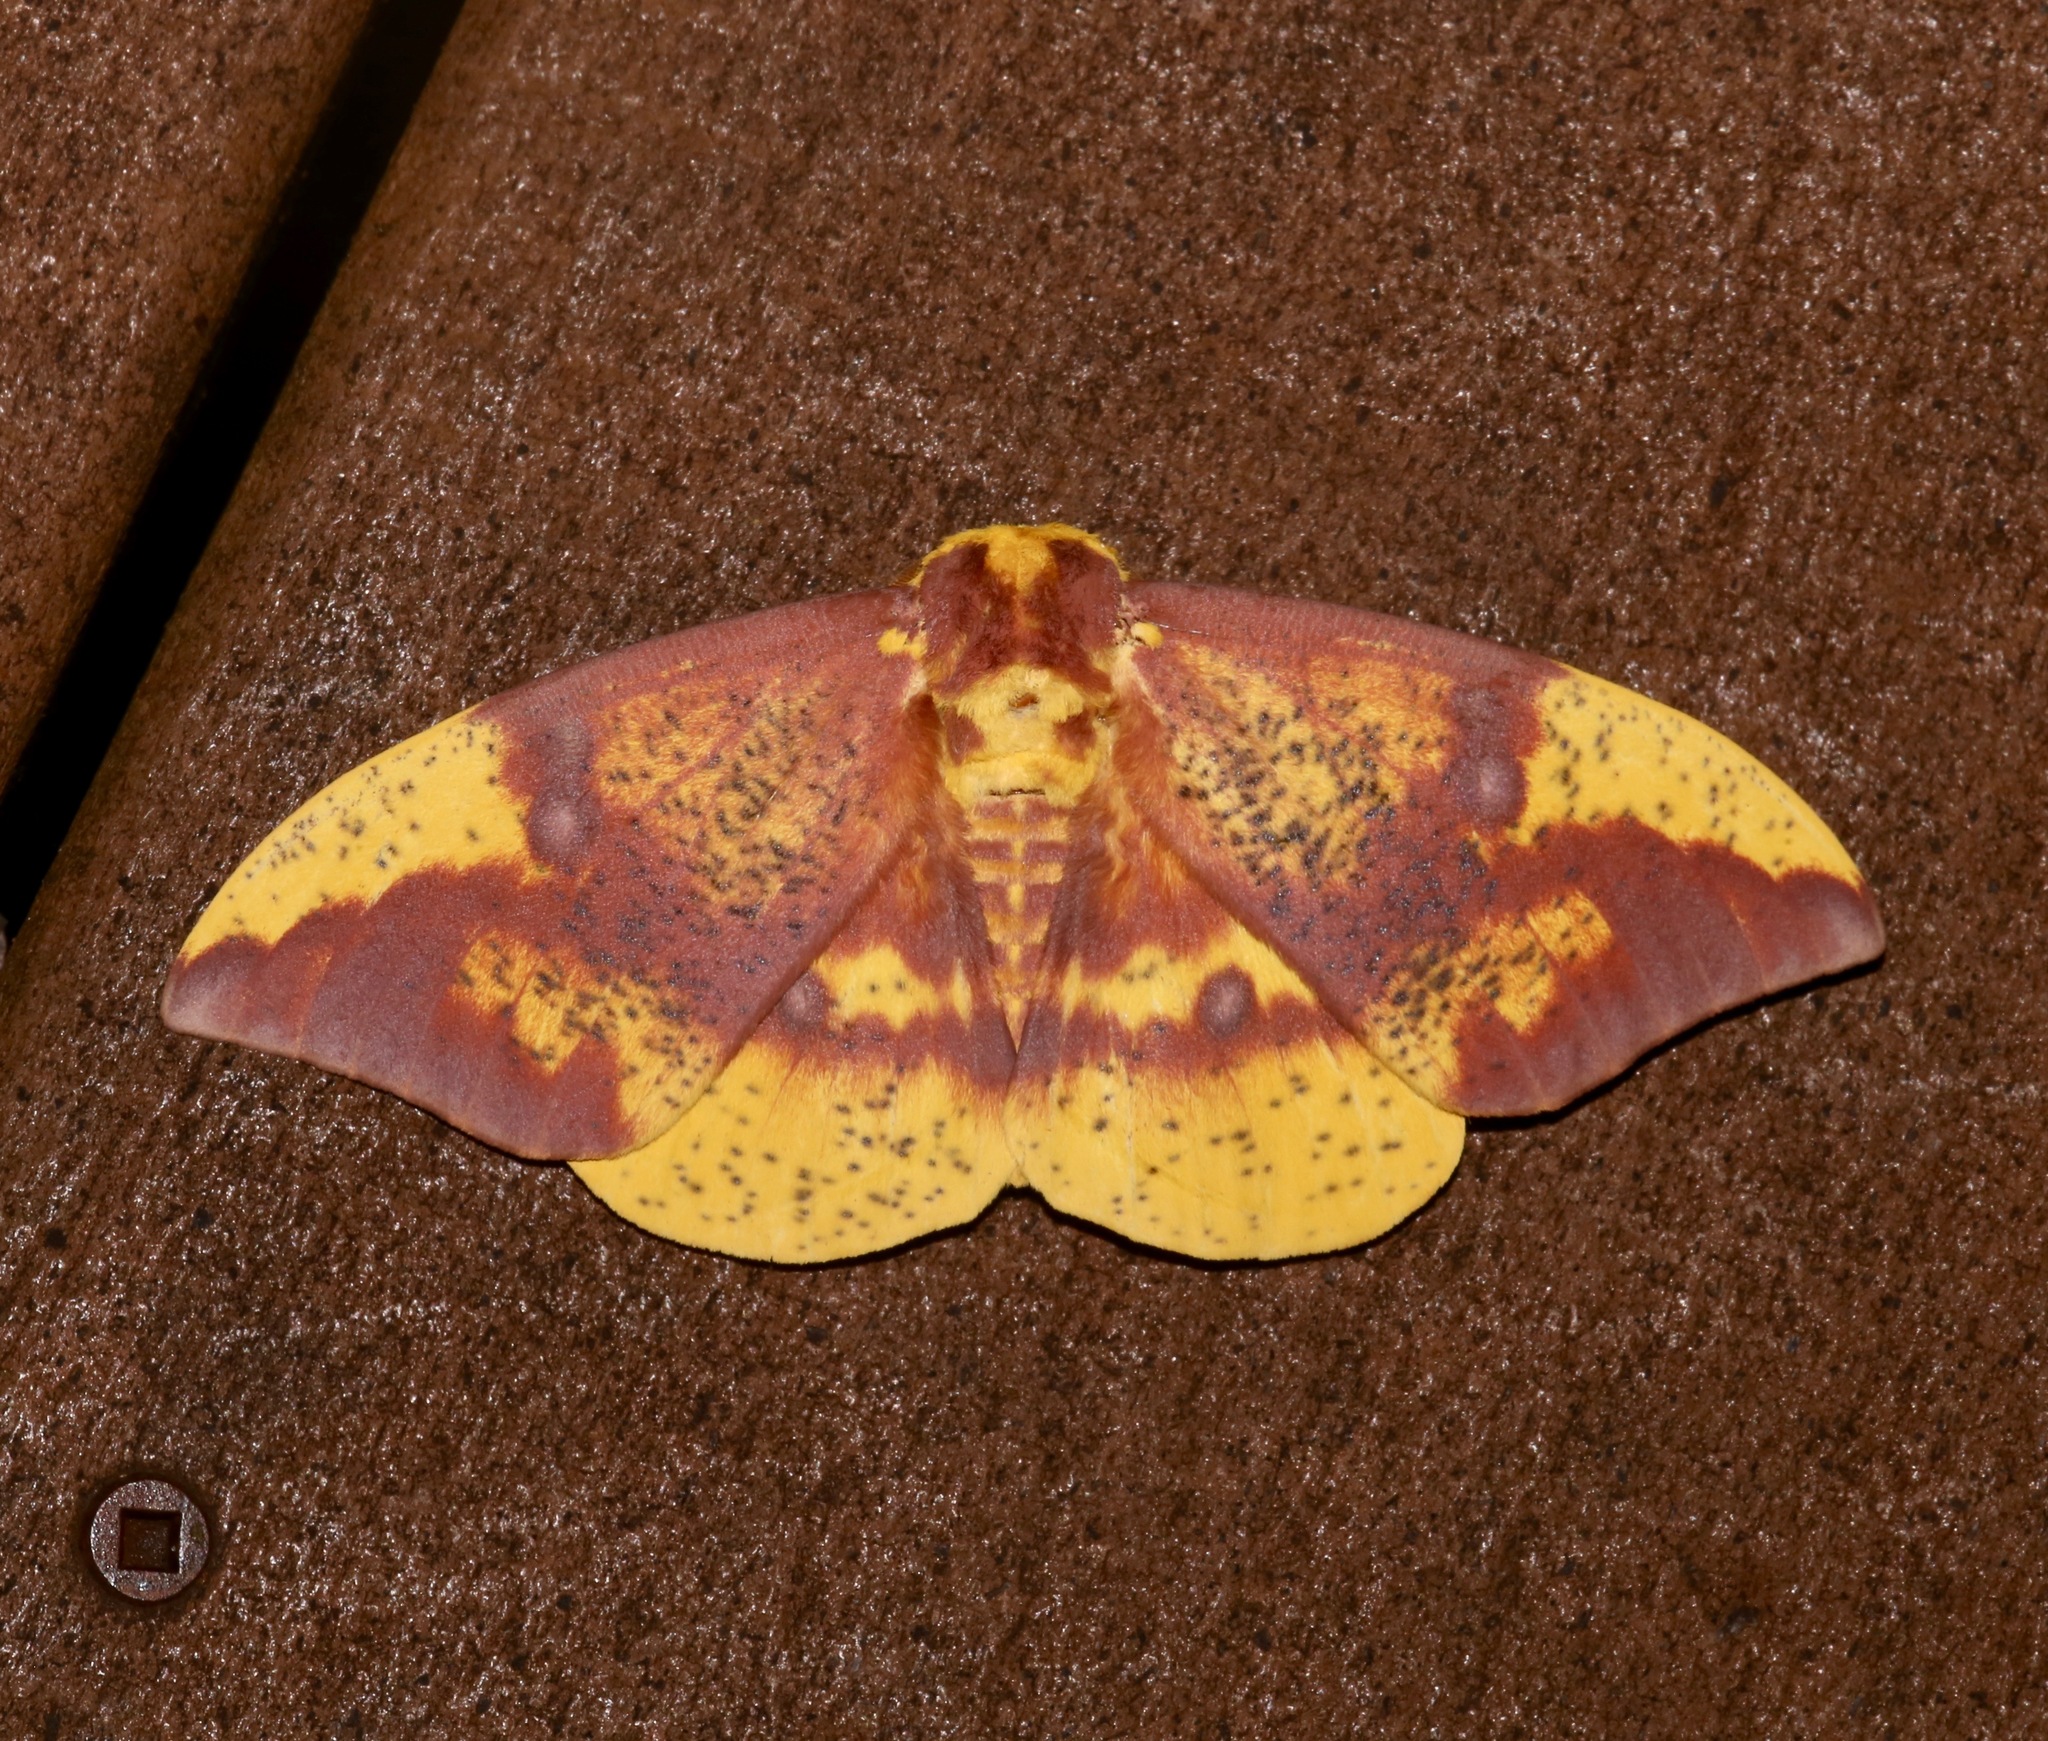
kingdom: Animalia
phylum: Arthropoda
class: Insecta
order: Lepidoptera
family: Saturniidae
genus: Eacles
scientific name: Eacles imperialis
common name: Imperial moth
